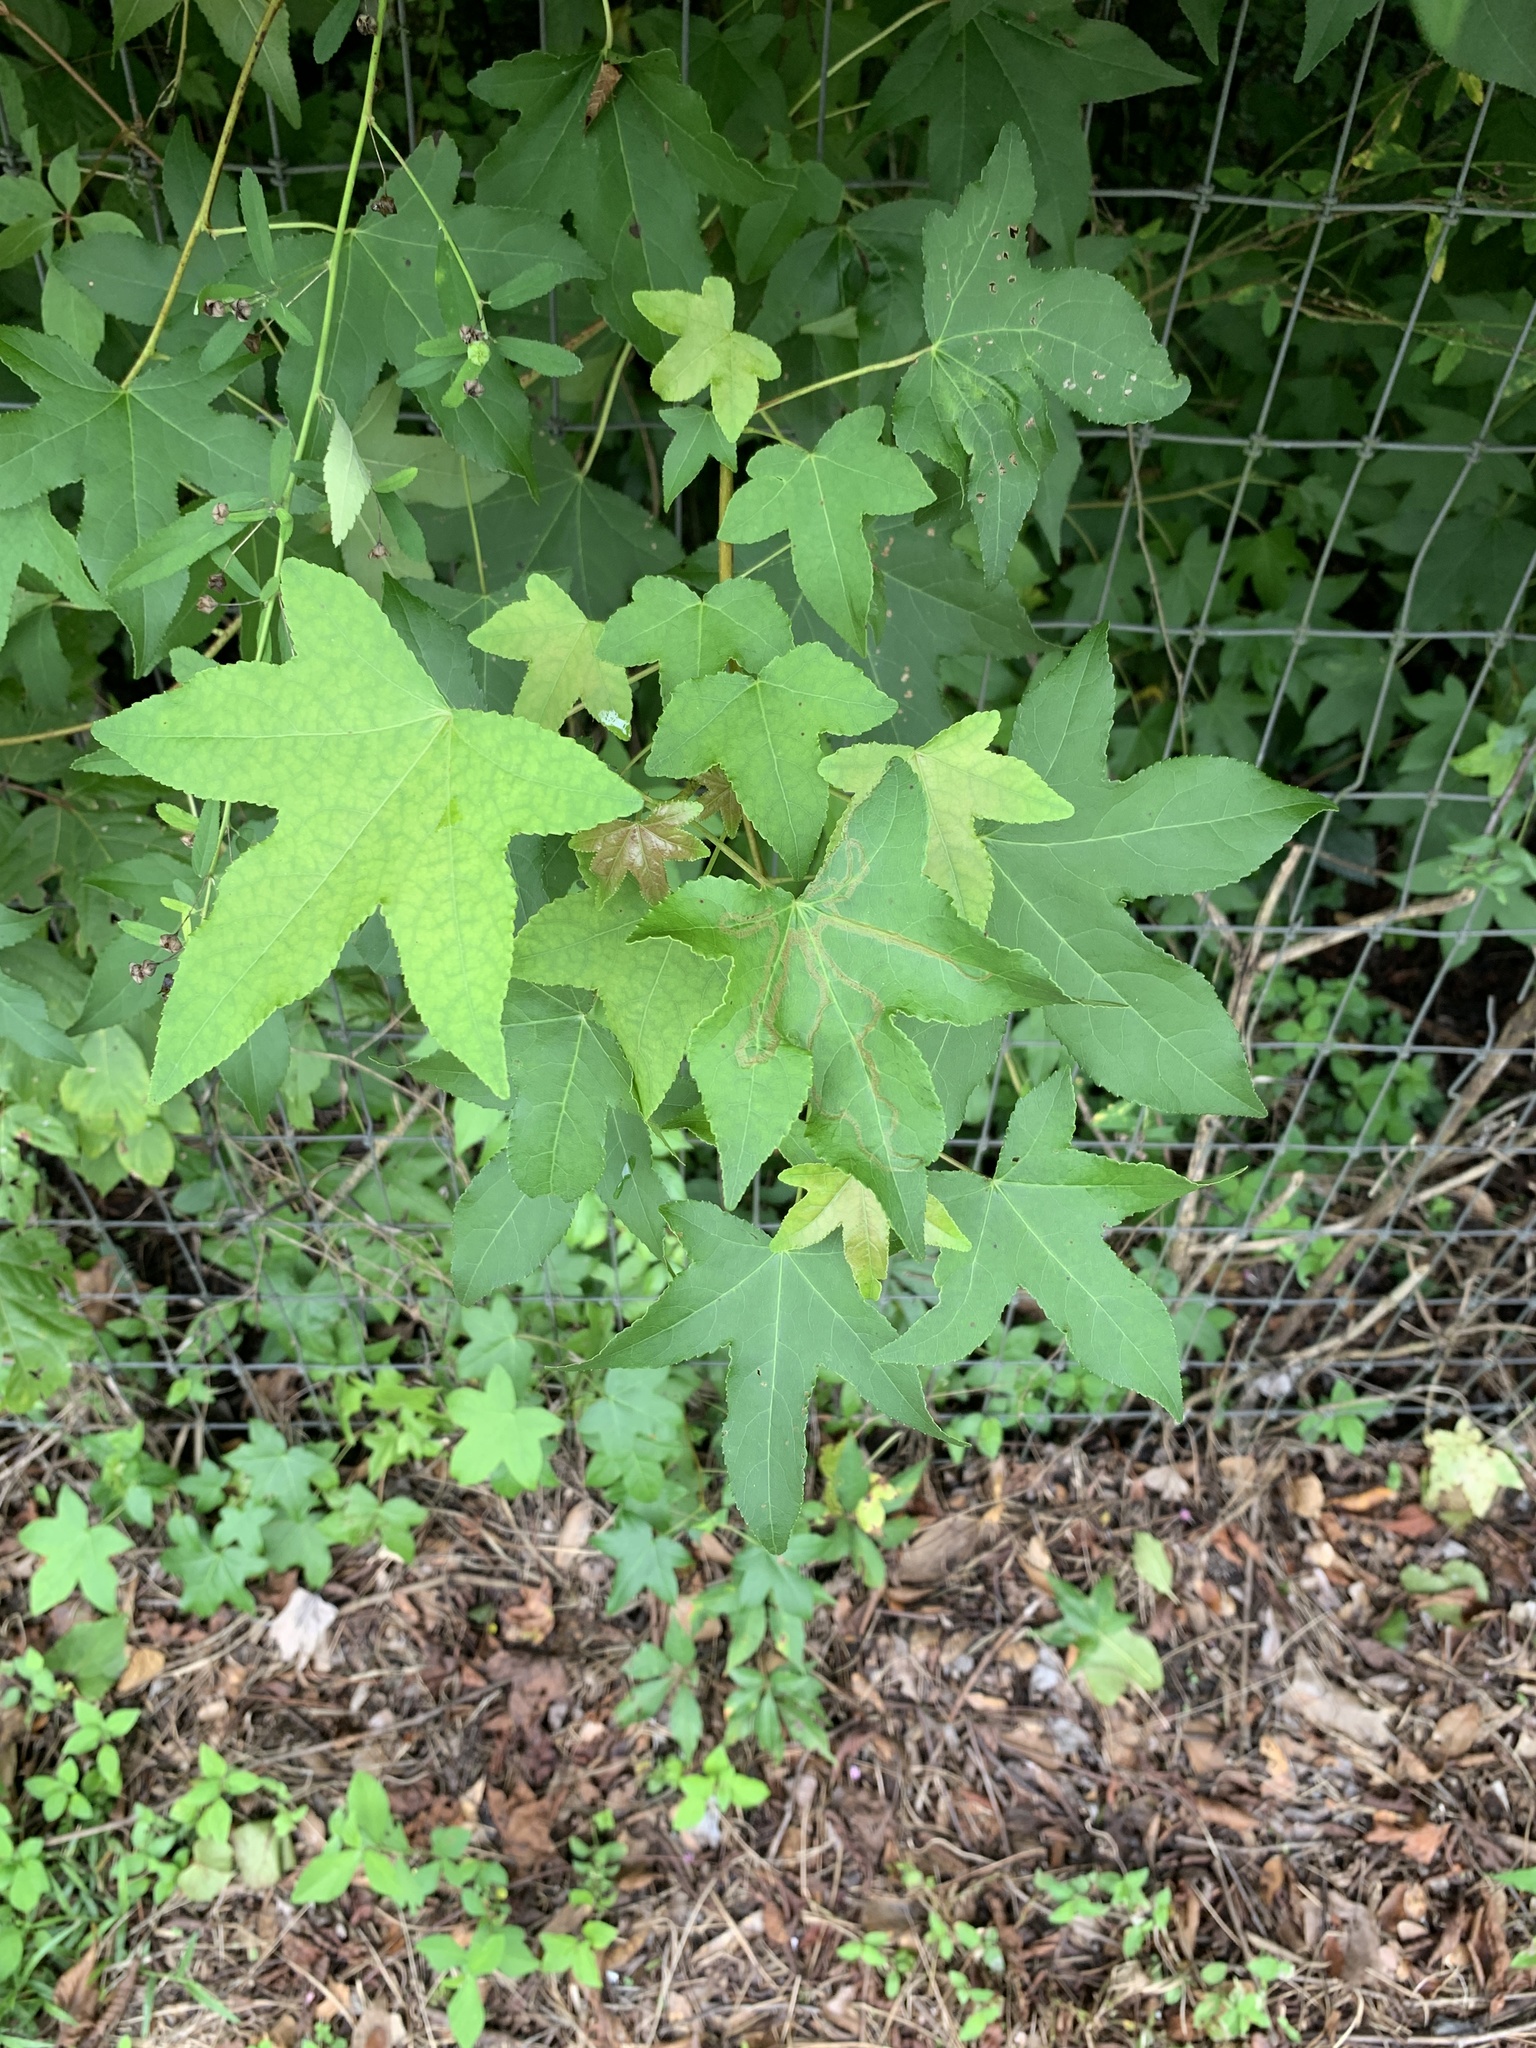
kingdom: Plantae
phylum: Tracheophyta
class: Magnoliopsida
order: Saxifragales
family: Altingiaceae
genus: Liquidambar
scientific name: Liquidambar styraciflua
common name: Sweet gum
